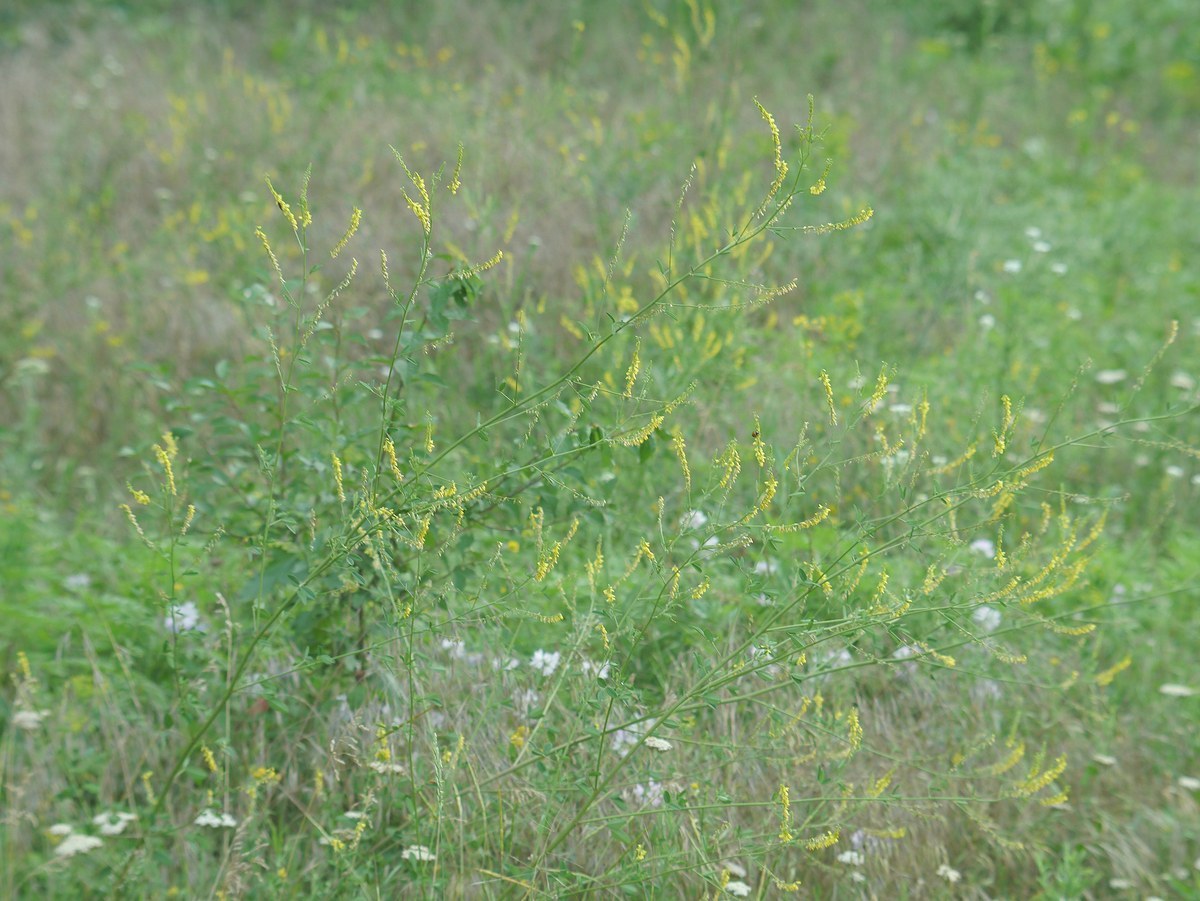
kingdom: Plantae
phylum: Tracheophyta
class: Magnoliopsida
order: Fabales
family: Fabaceae
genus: Melilotus
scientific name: Melilotus officinalis
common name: Sweetclover
